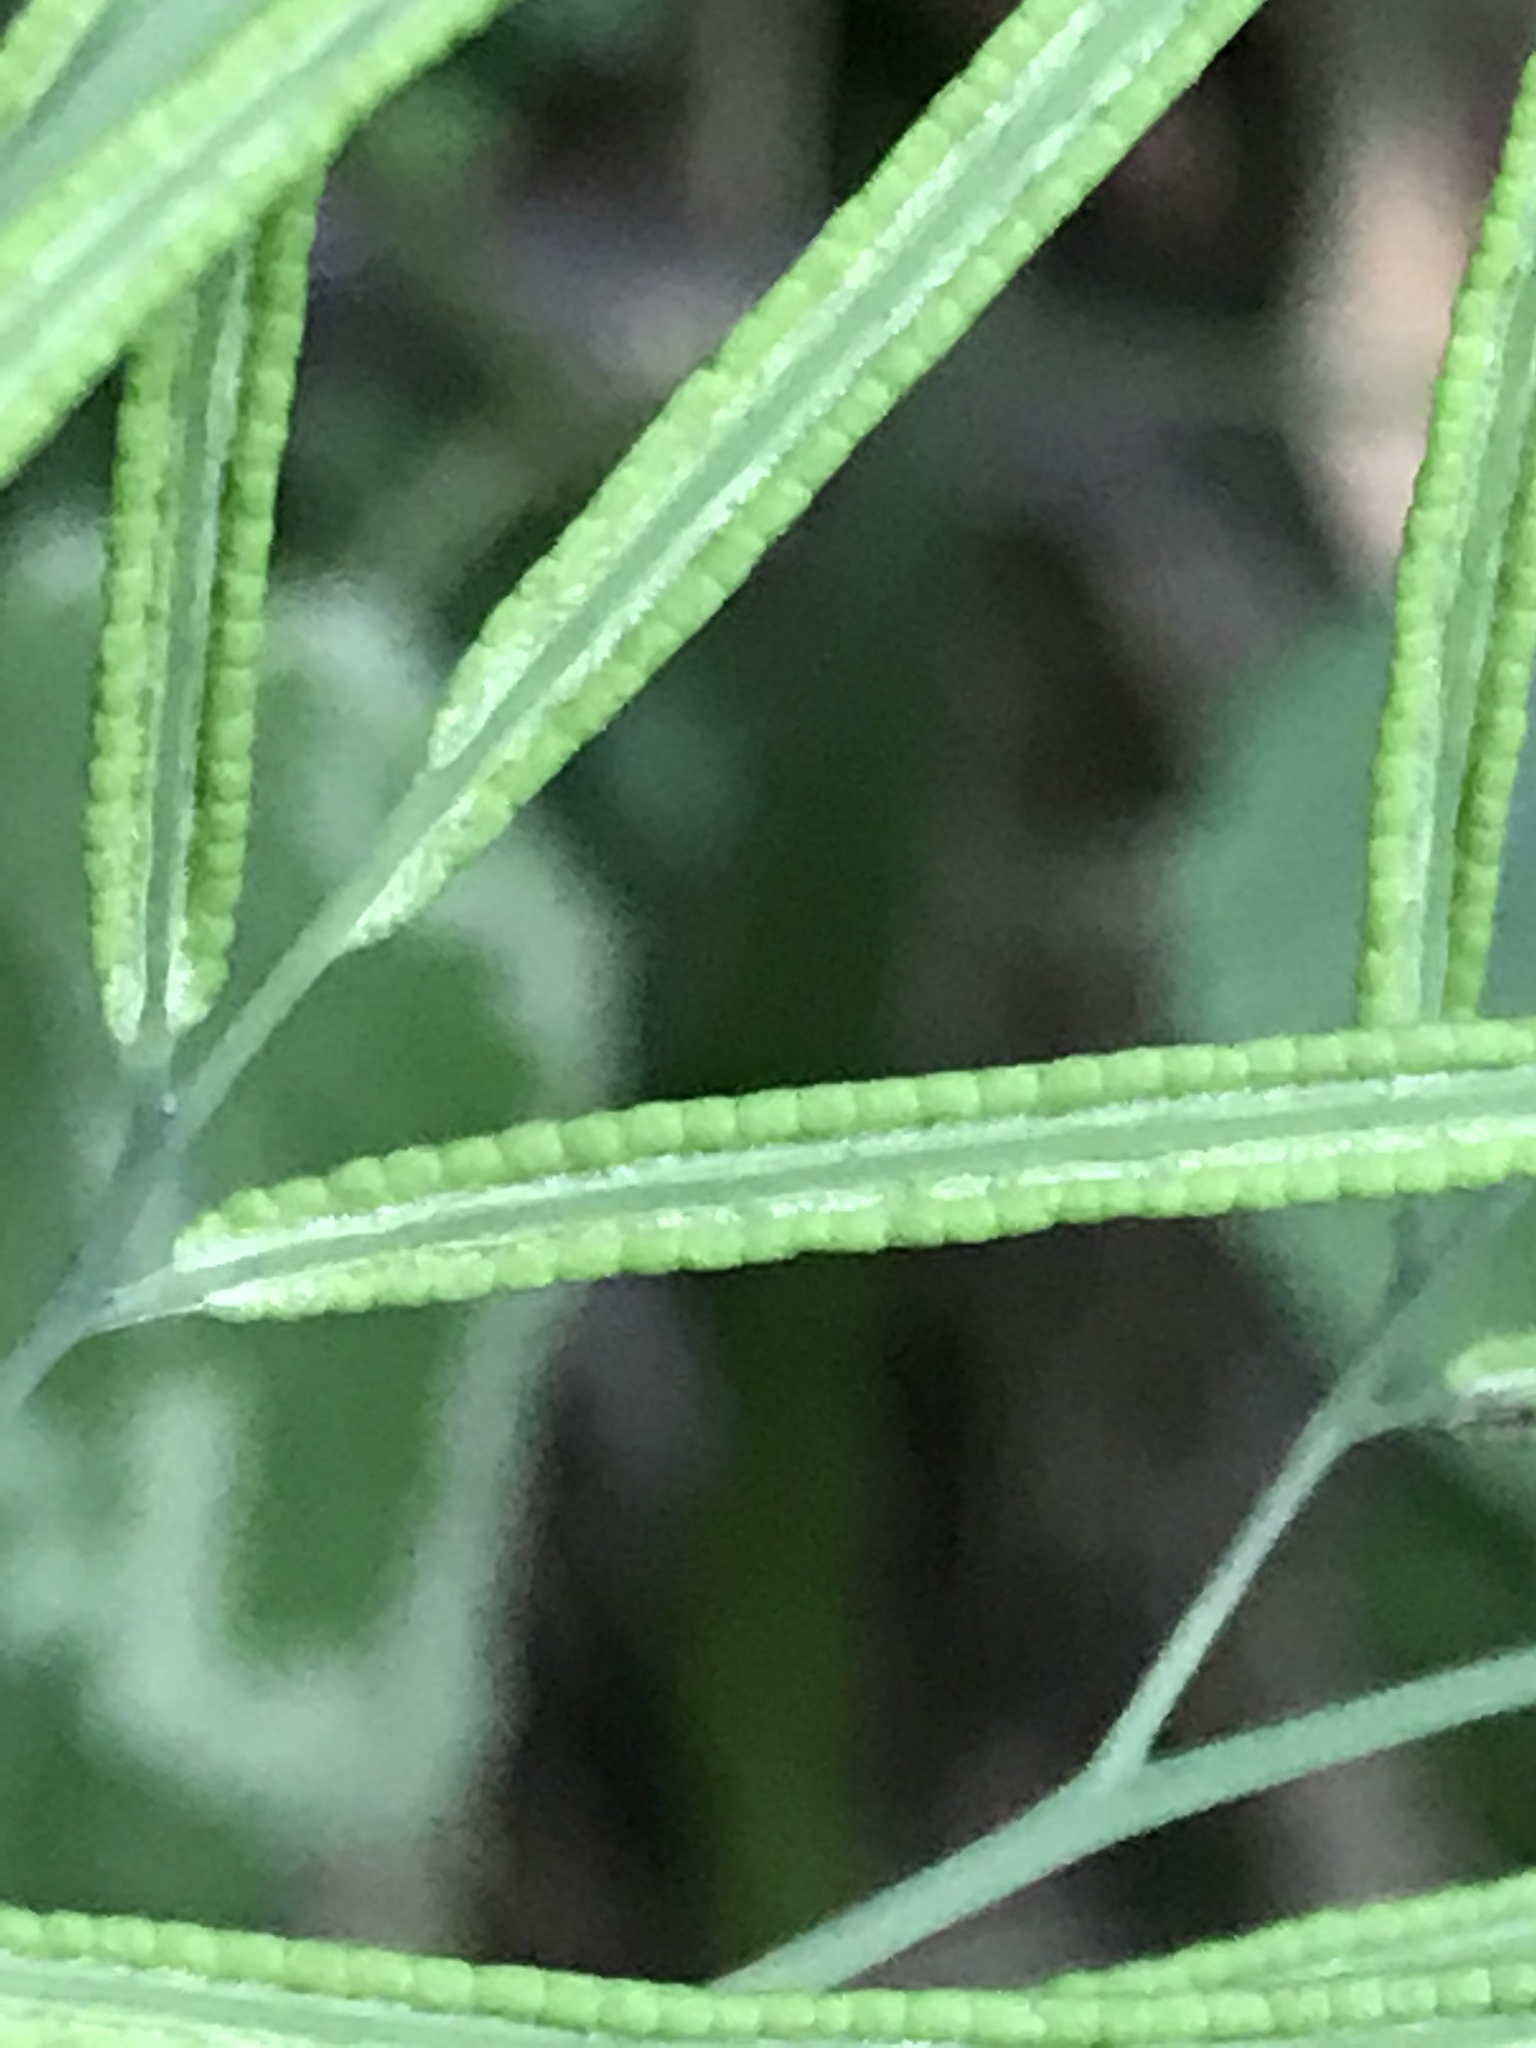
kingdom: Plantae
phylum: Tracheophyta
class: Polypodiopsida
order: Polypodiales
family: Pteridaceae
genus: Llavea
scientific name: Llavea cordifolia
